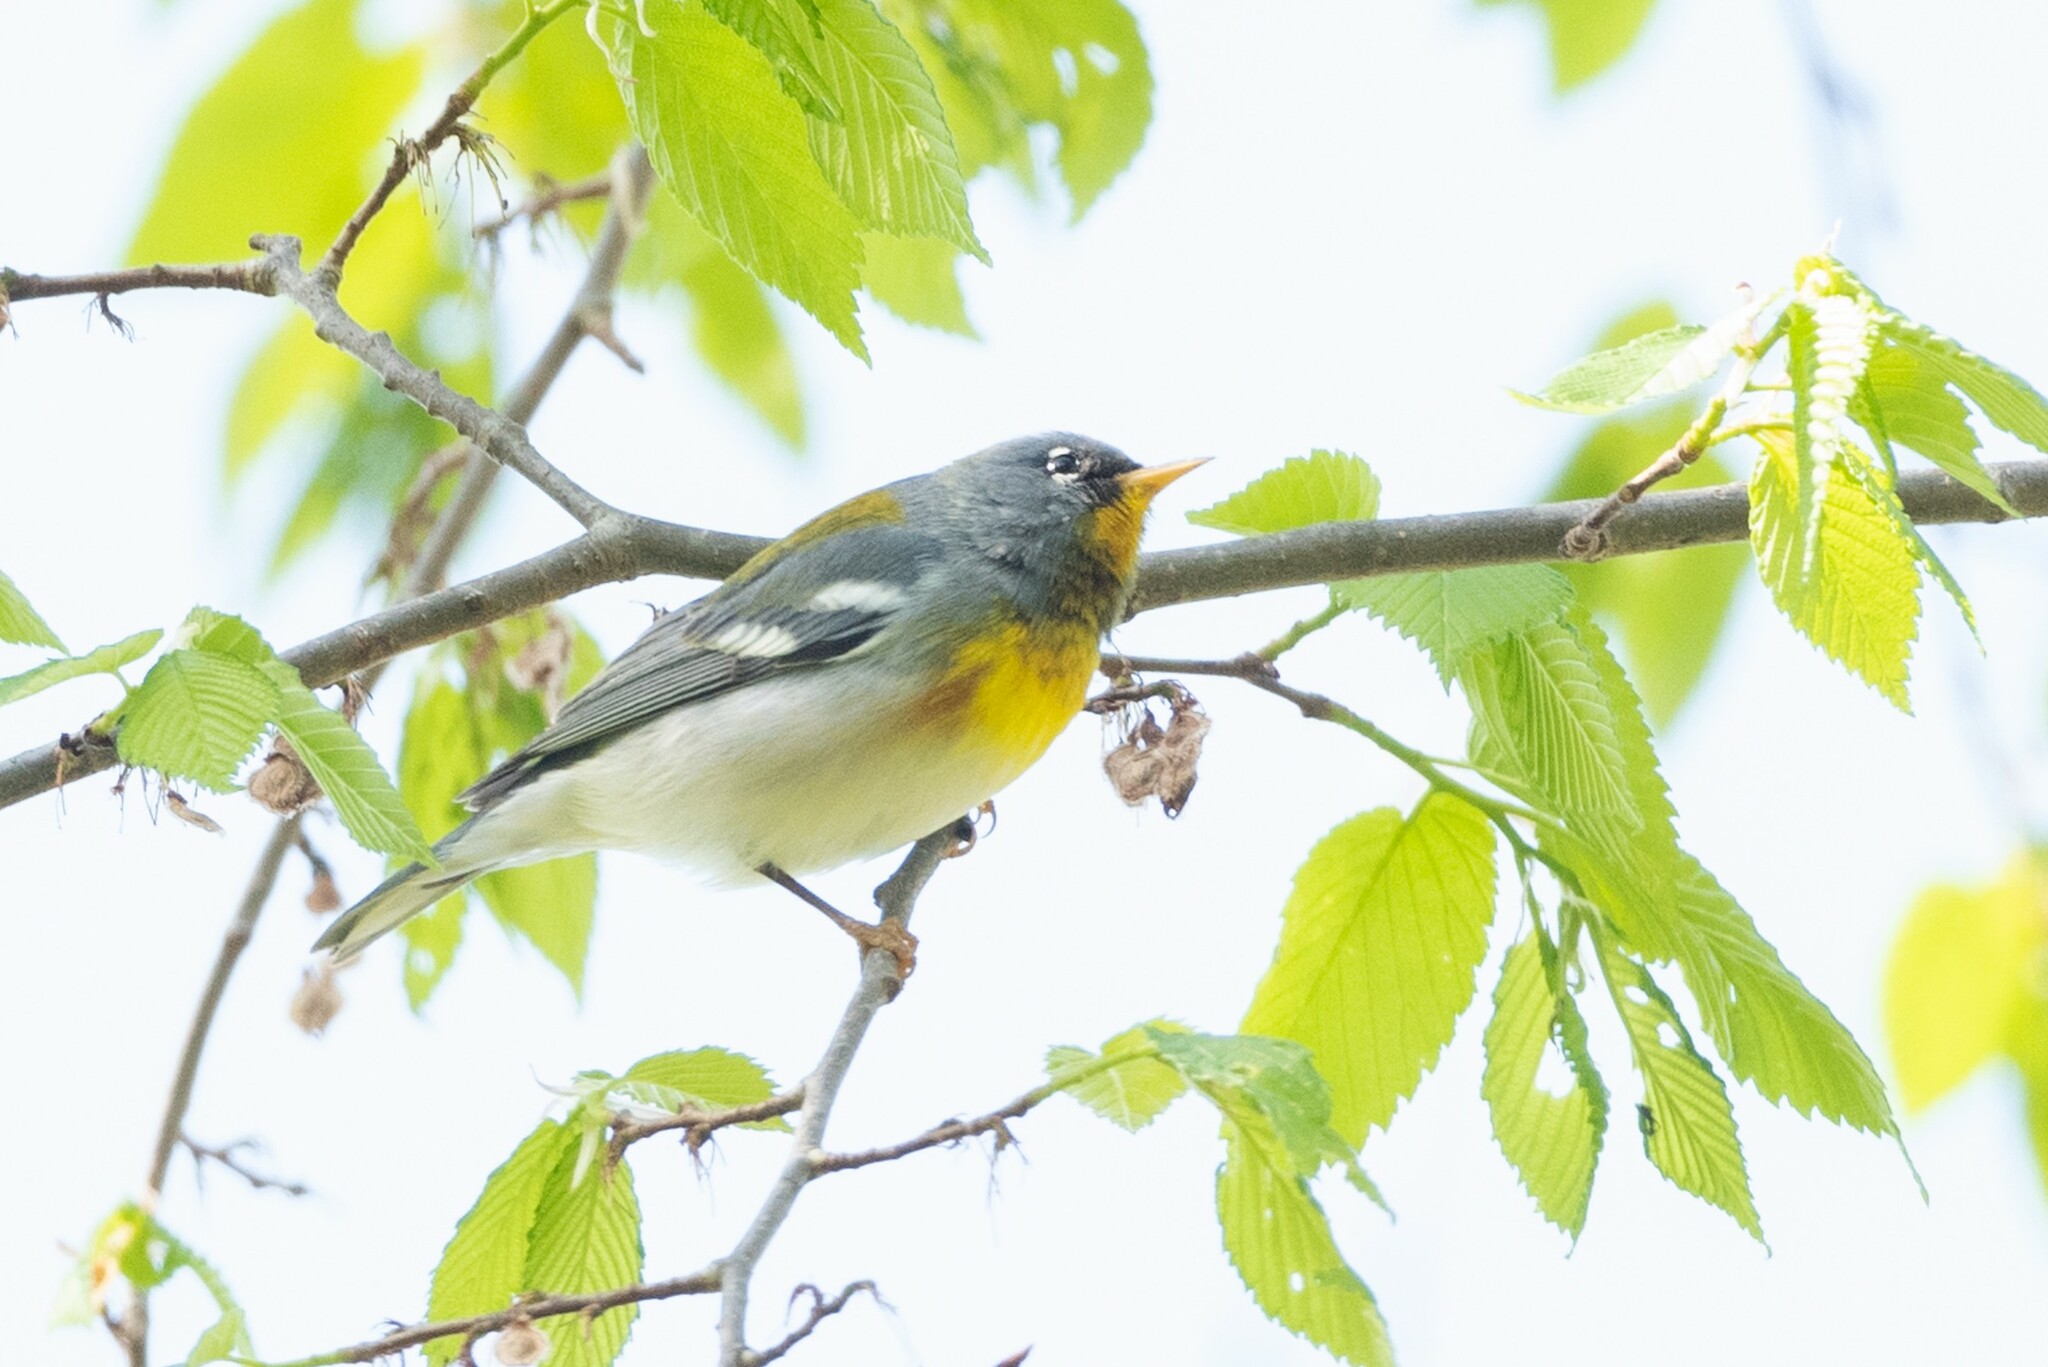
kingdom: Animalia
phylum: Chordata
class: Aves
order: Passeriformes
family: Parulidae
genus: Setophaga
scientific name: Setophaga americana
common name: Northern parula
